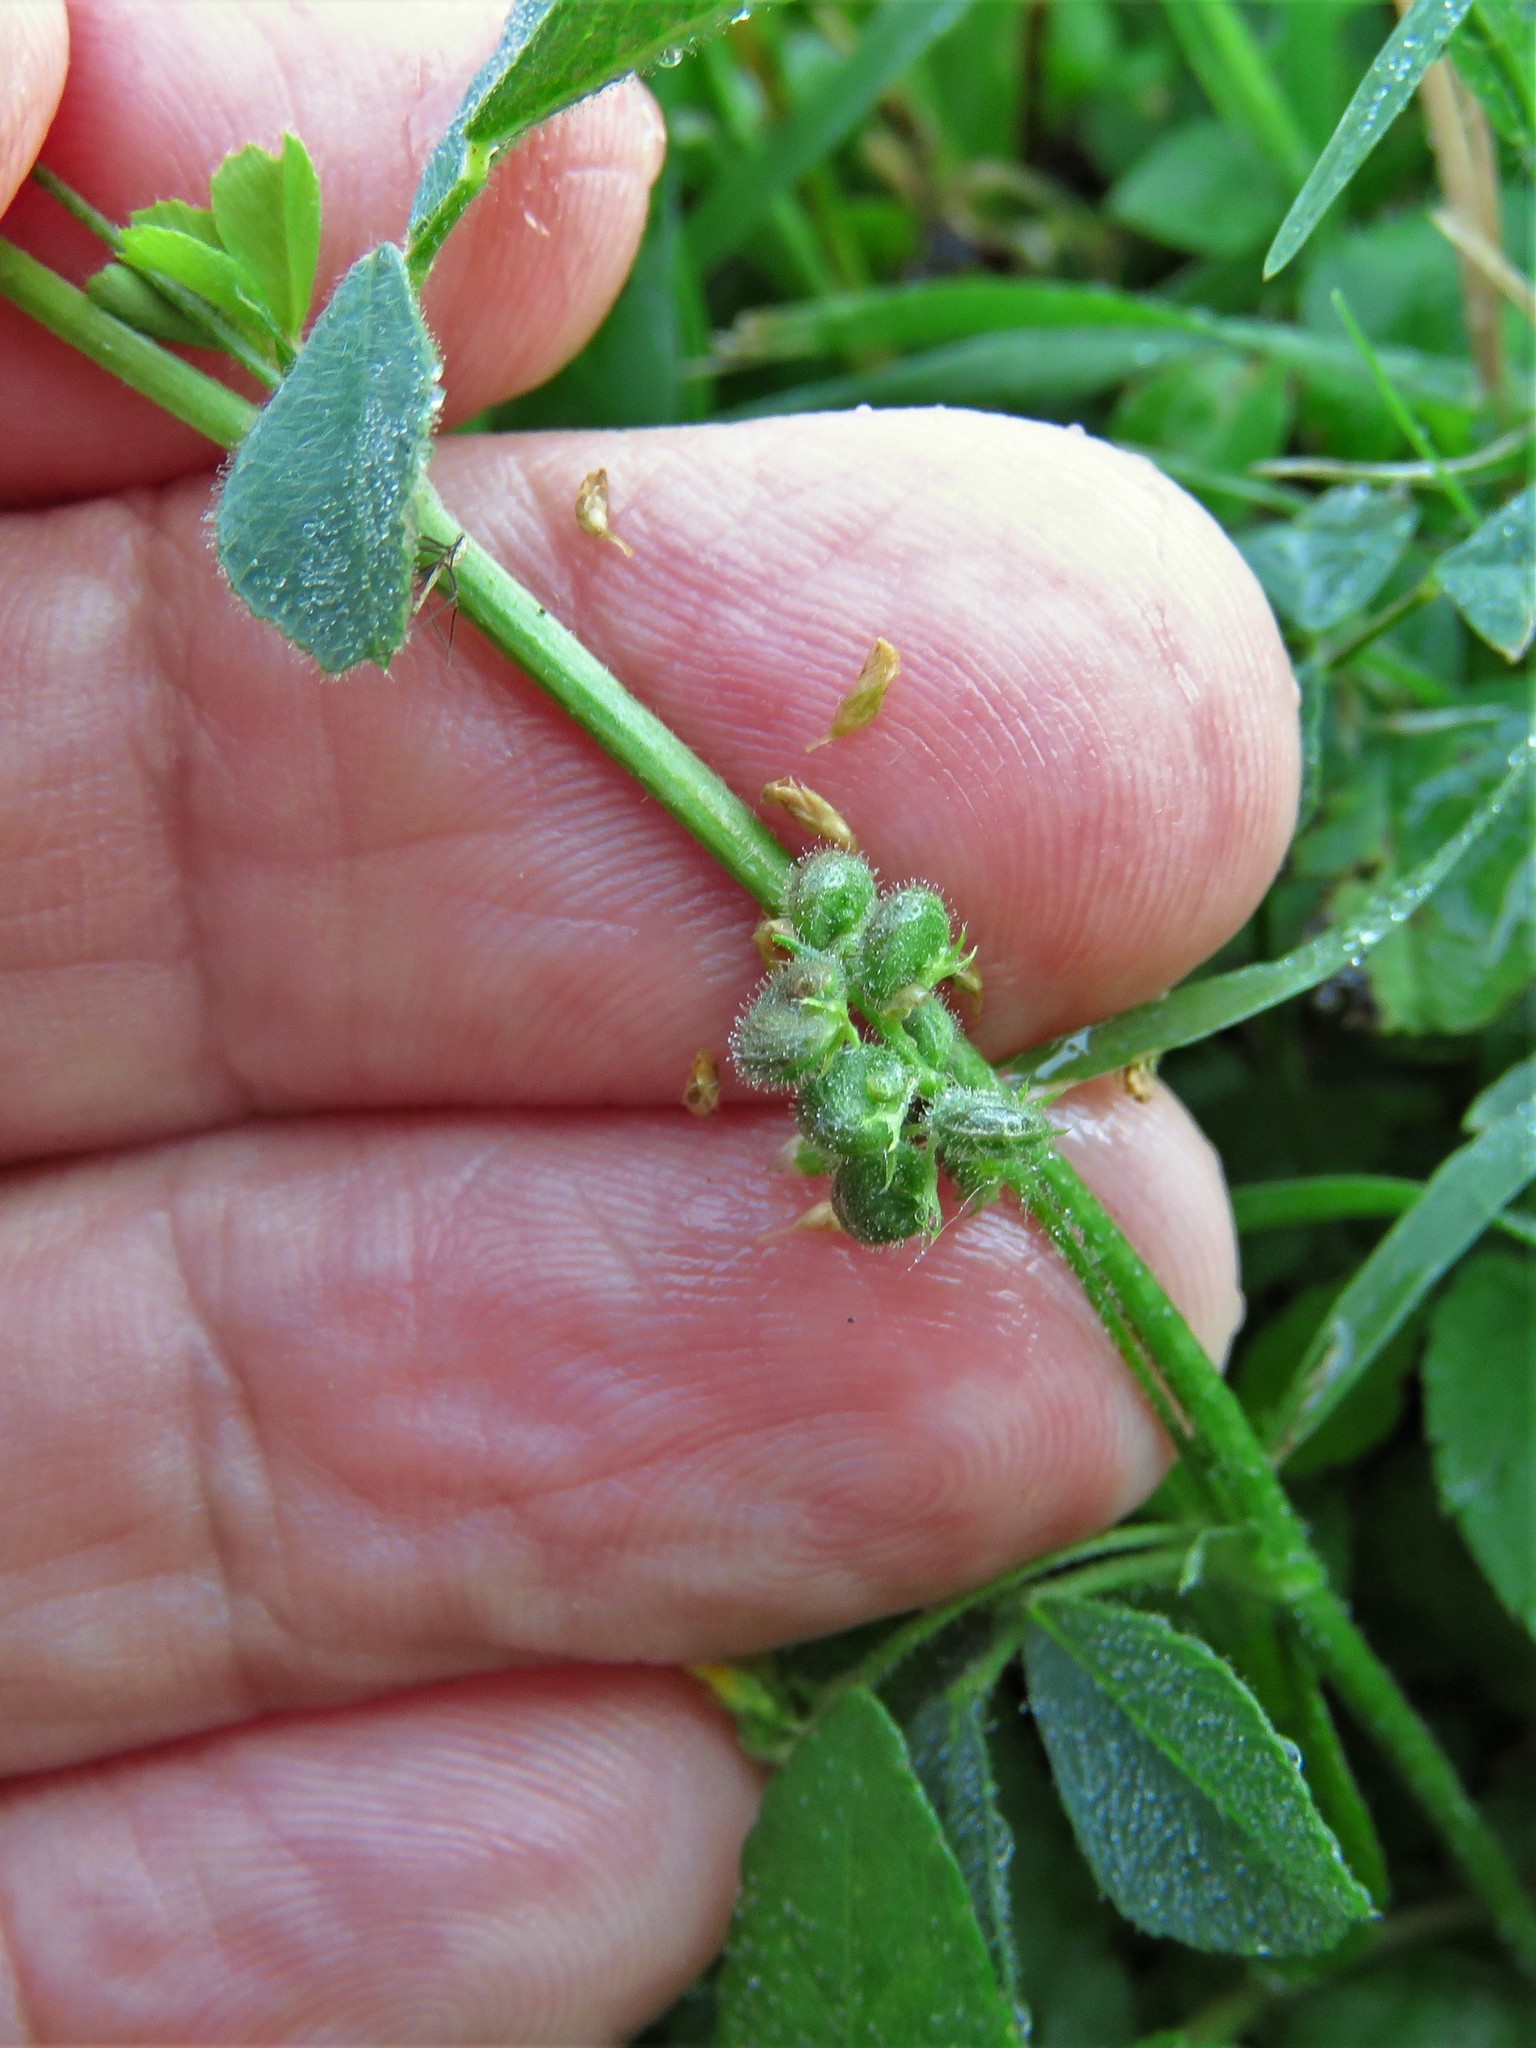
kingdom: Plantae
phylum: Tracheophyta
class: Magnoliopsida
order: Fabales
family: Fabaceae
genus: Medicago
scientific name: Medicago lupulina
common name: Black medick
